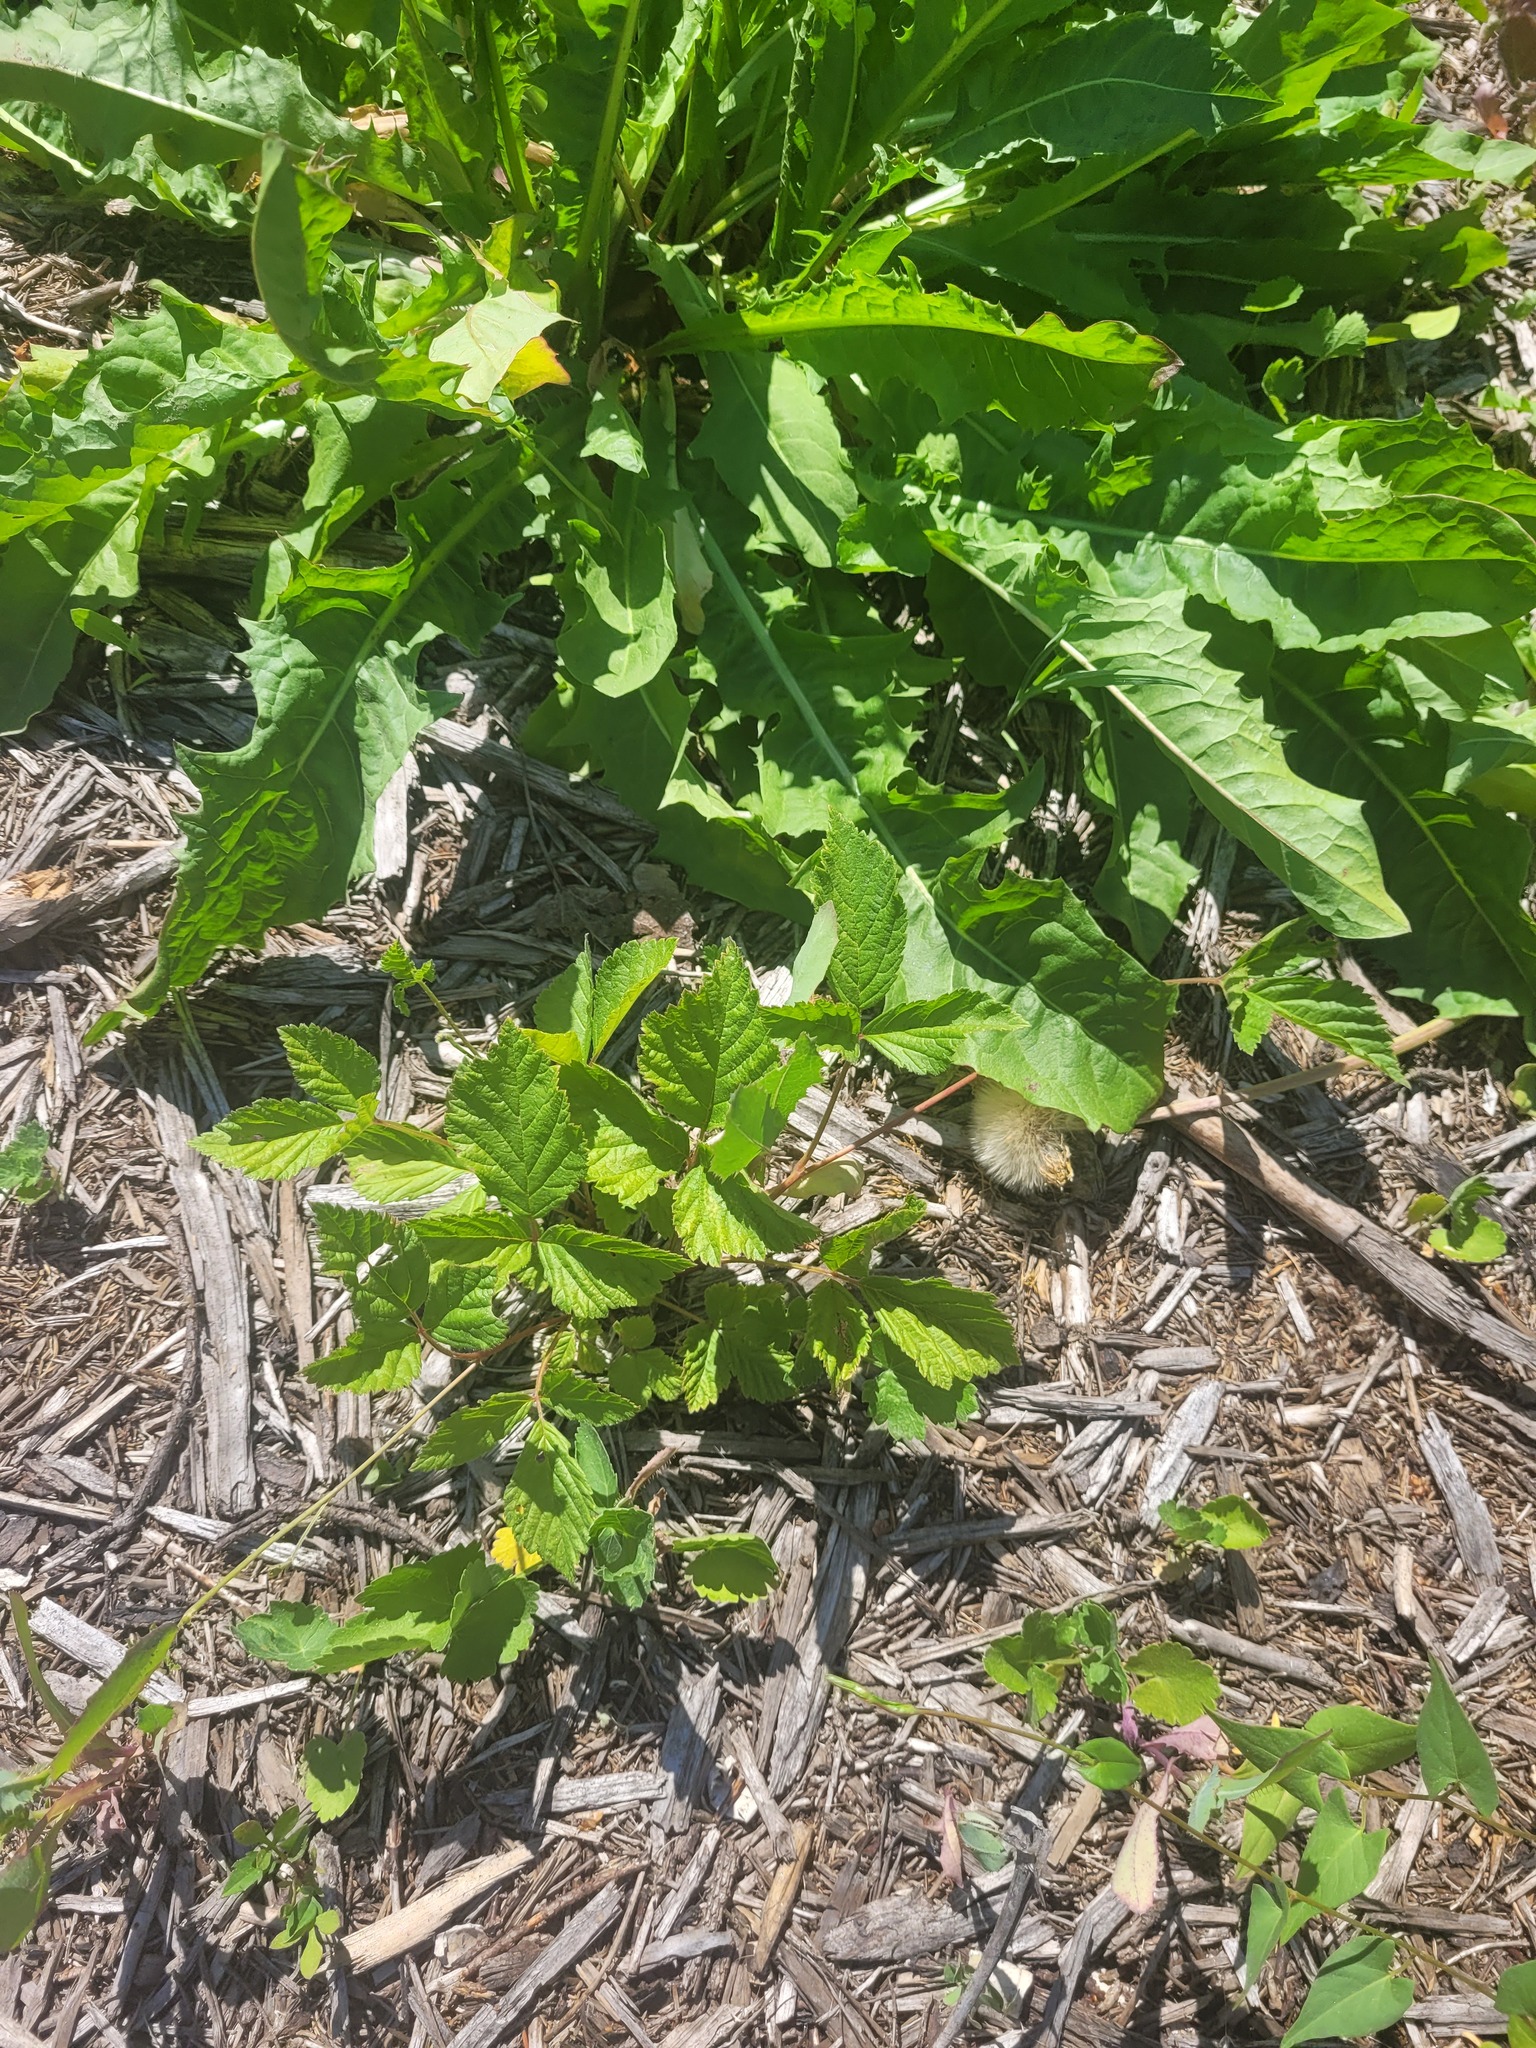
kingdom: Plantae
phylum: Tracheophyta
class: Magnoliopsida
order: Rosales
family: Rosaceae
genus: Rubus
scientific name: Rubus saxatilis
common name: Stone bramble
